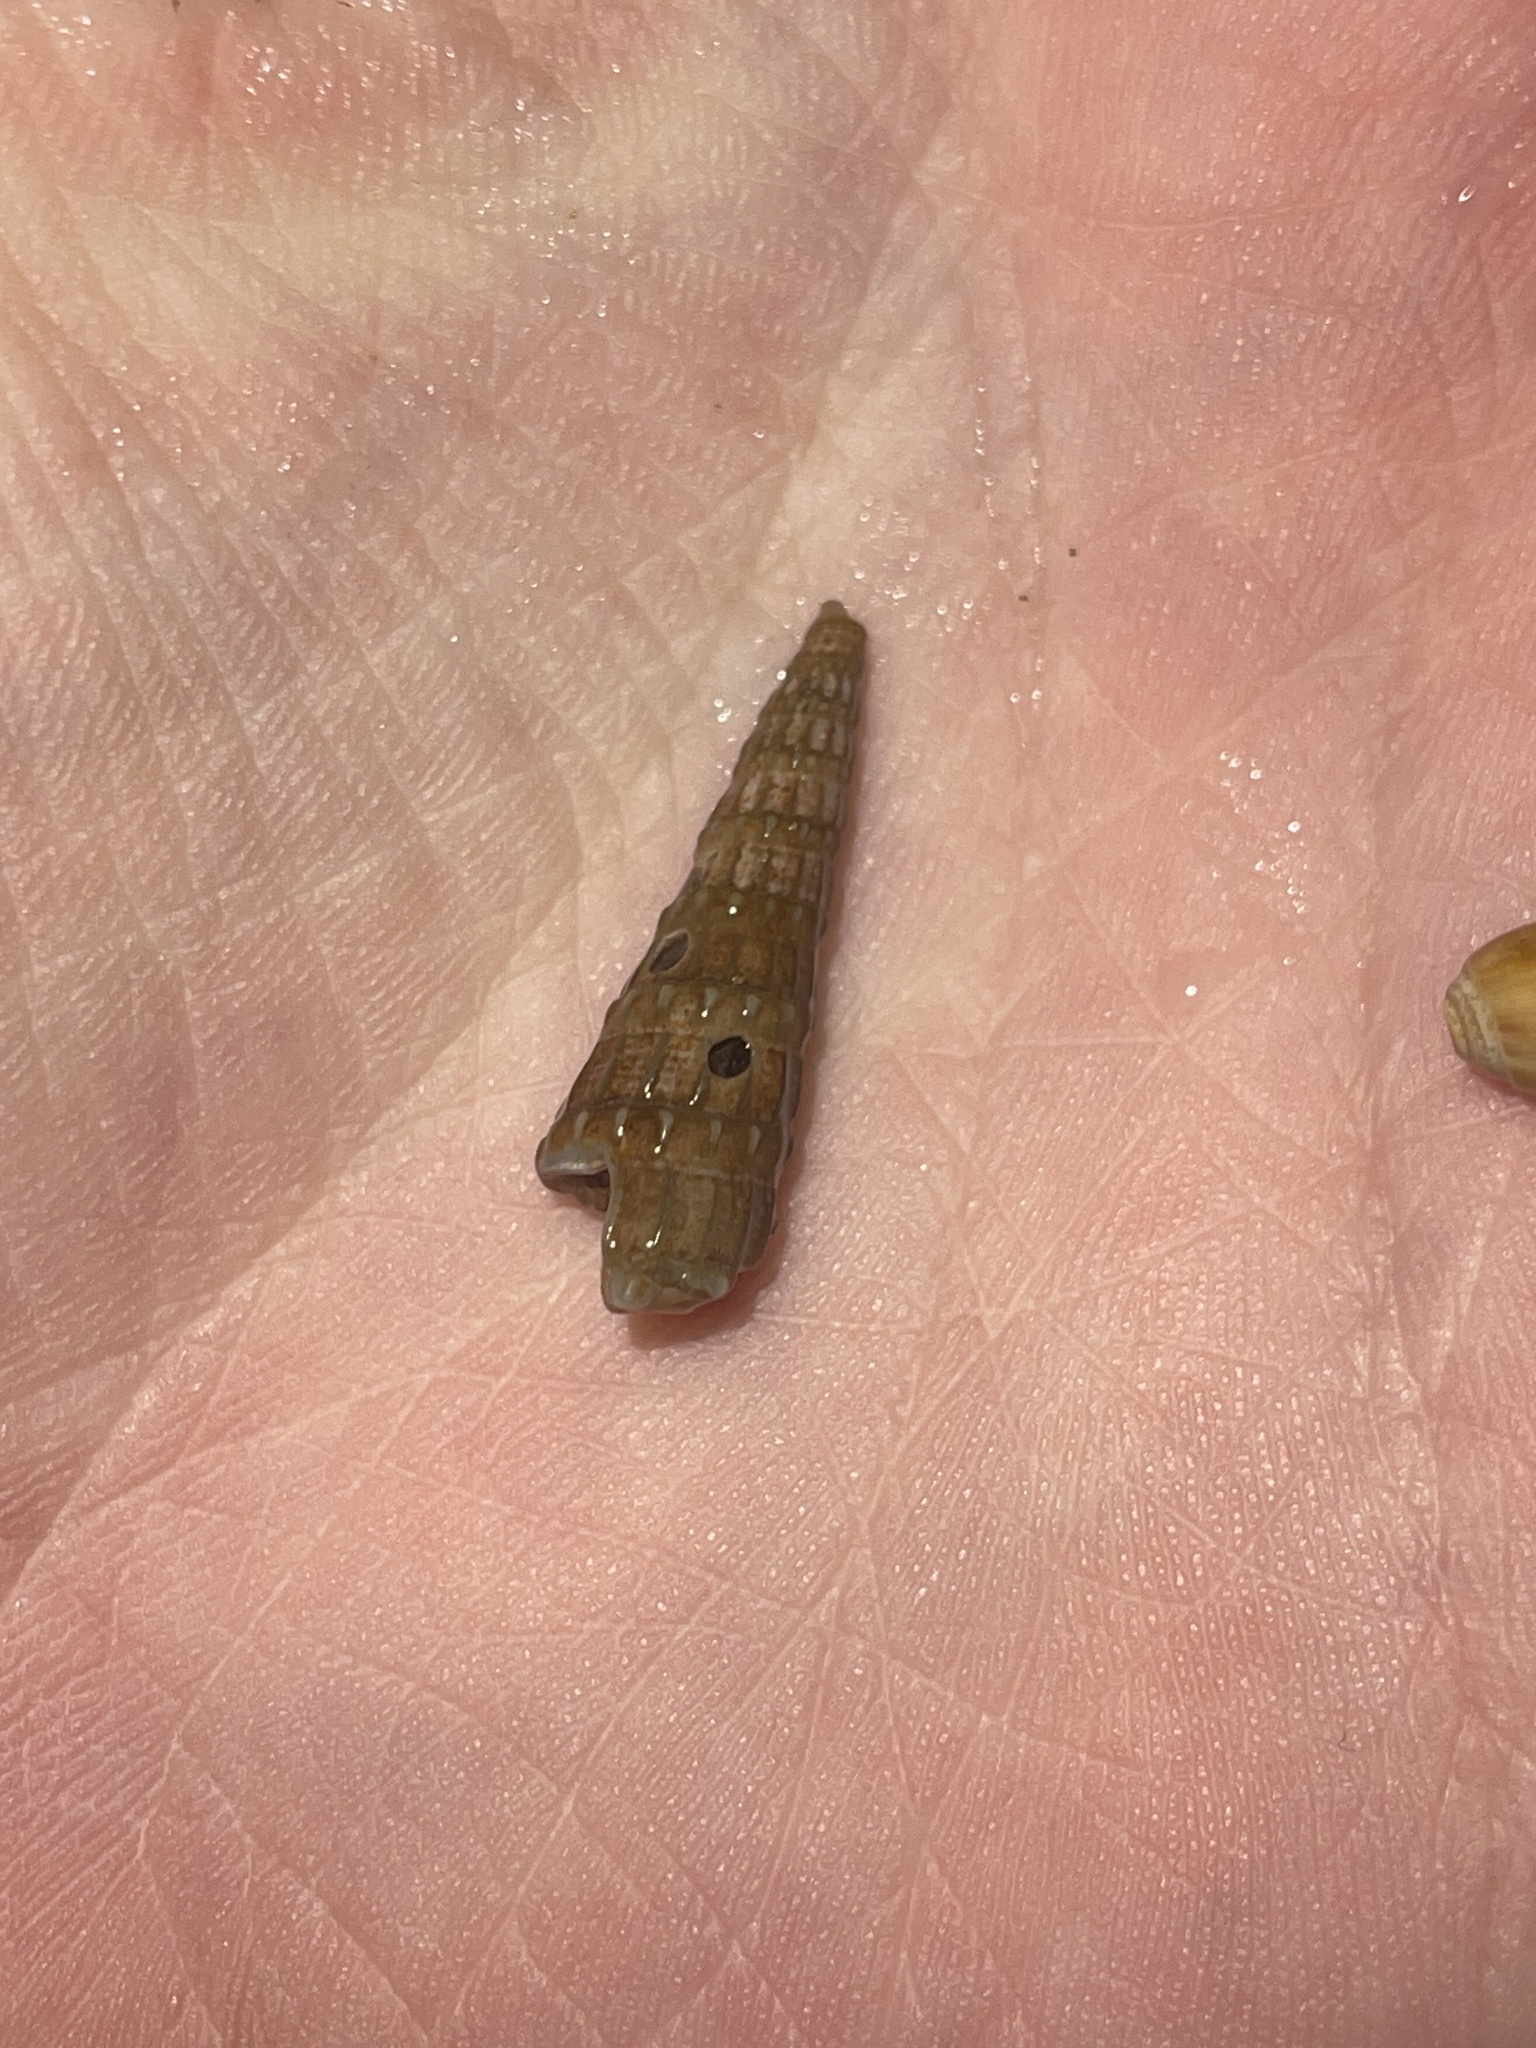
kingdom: Animalia
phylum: Mollusca
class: Gastropoda
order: Neogastropoda
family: Terebridae
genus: Neoterebra
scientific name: Neoterebra dislocata
